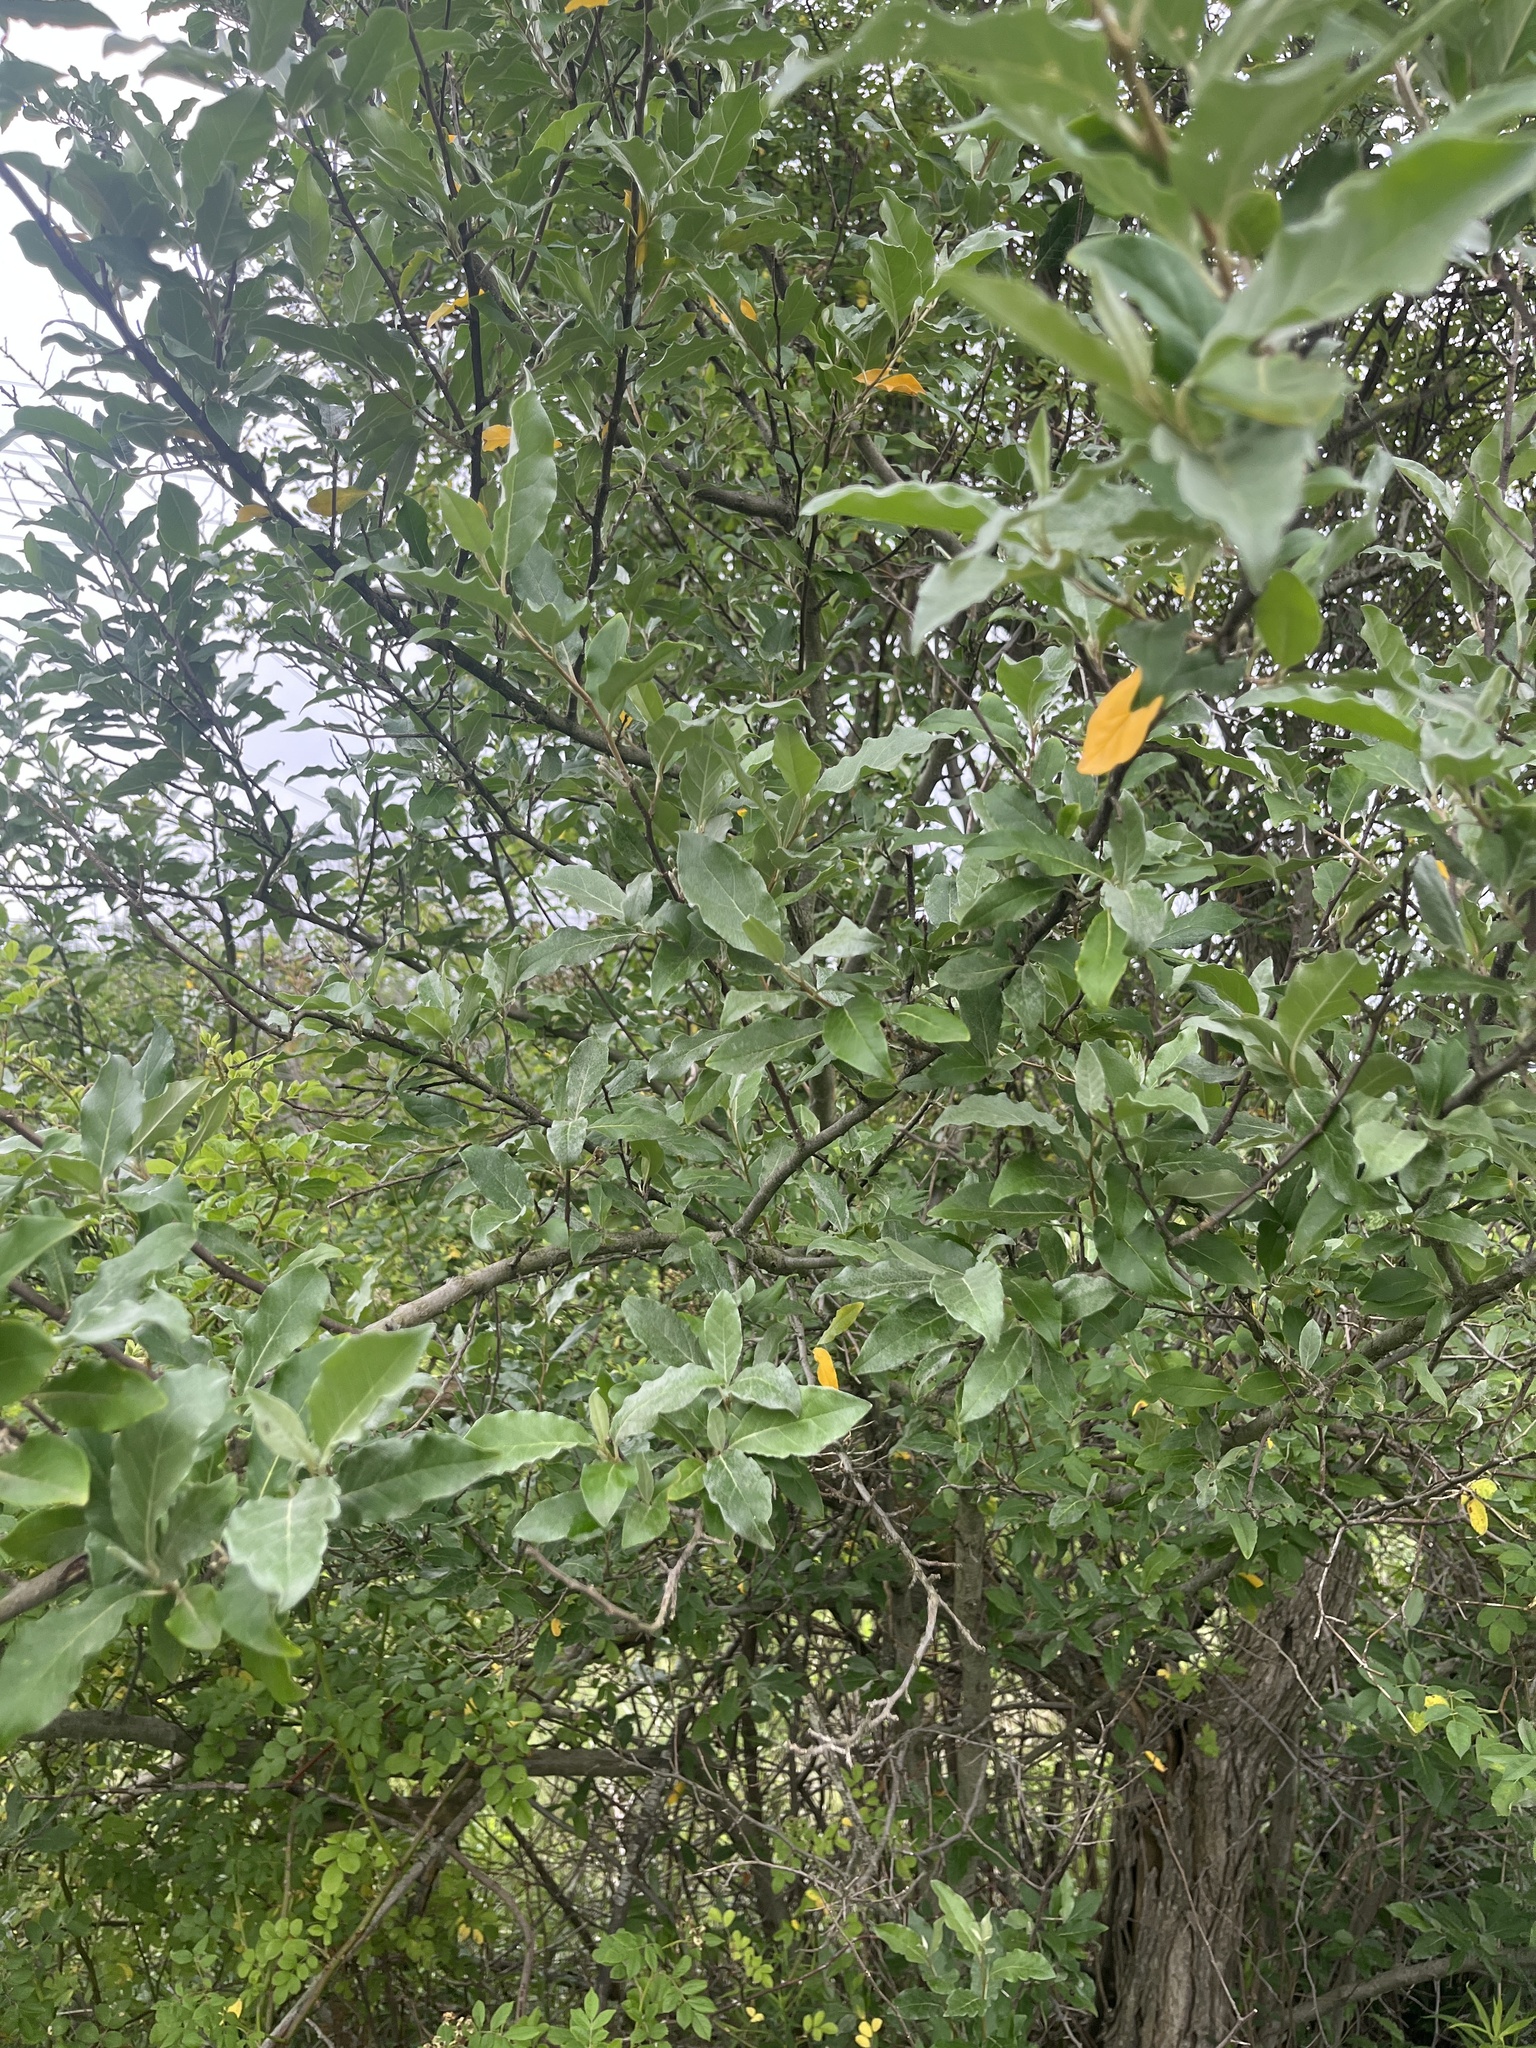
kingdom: Plantae
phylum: Tracheophyta
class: Magnoliopsida
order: Rosales
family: Elaeagnaceae
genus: Elaeagnus
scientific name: Elaeagnus umbellata
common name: Autumn olive
